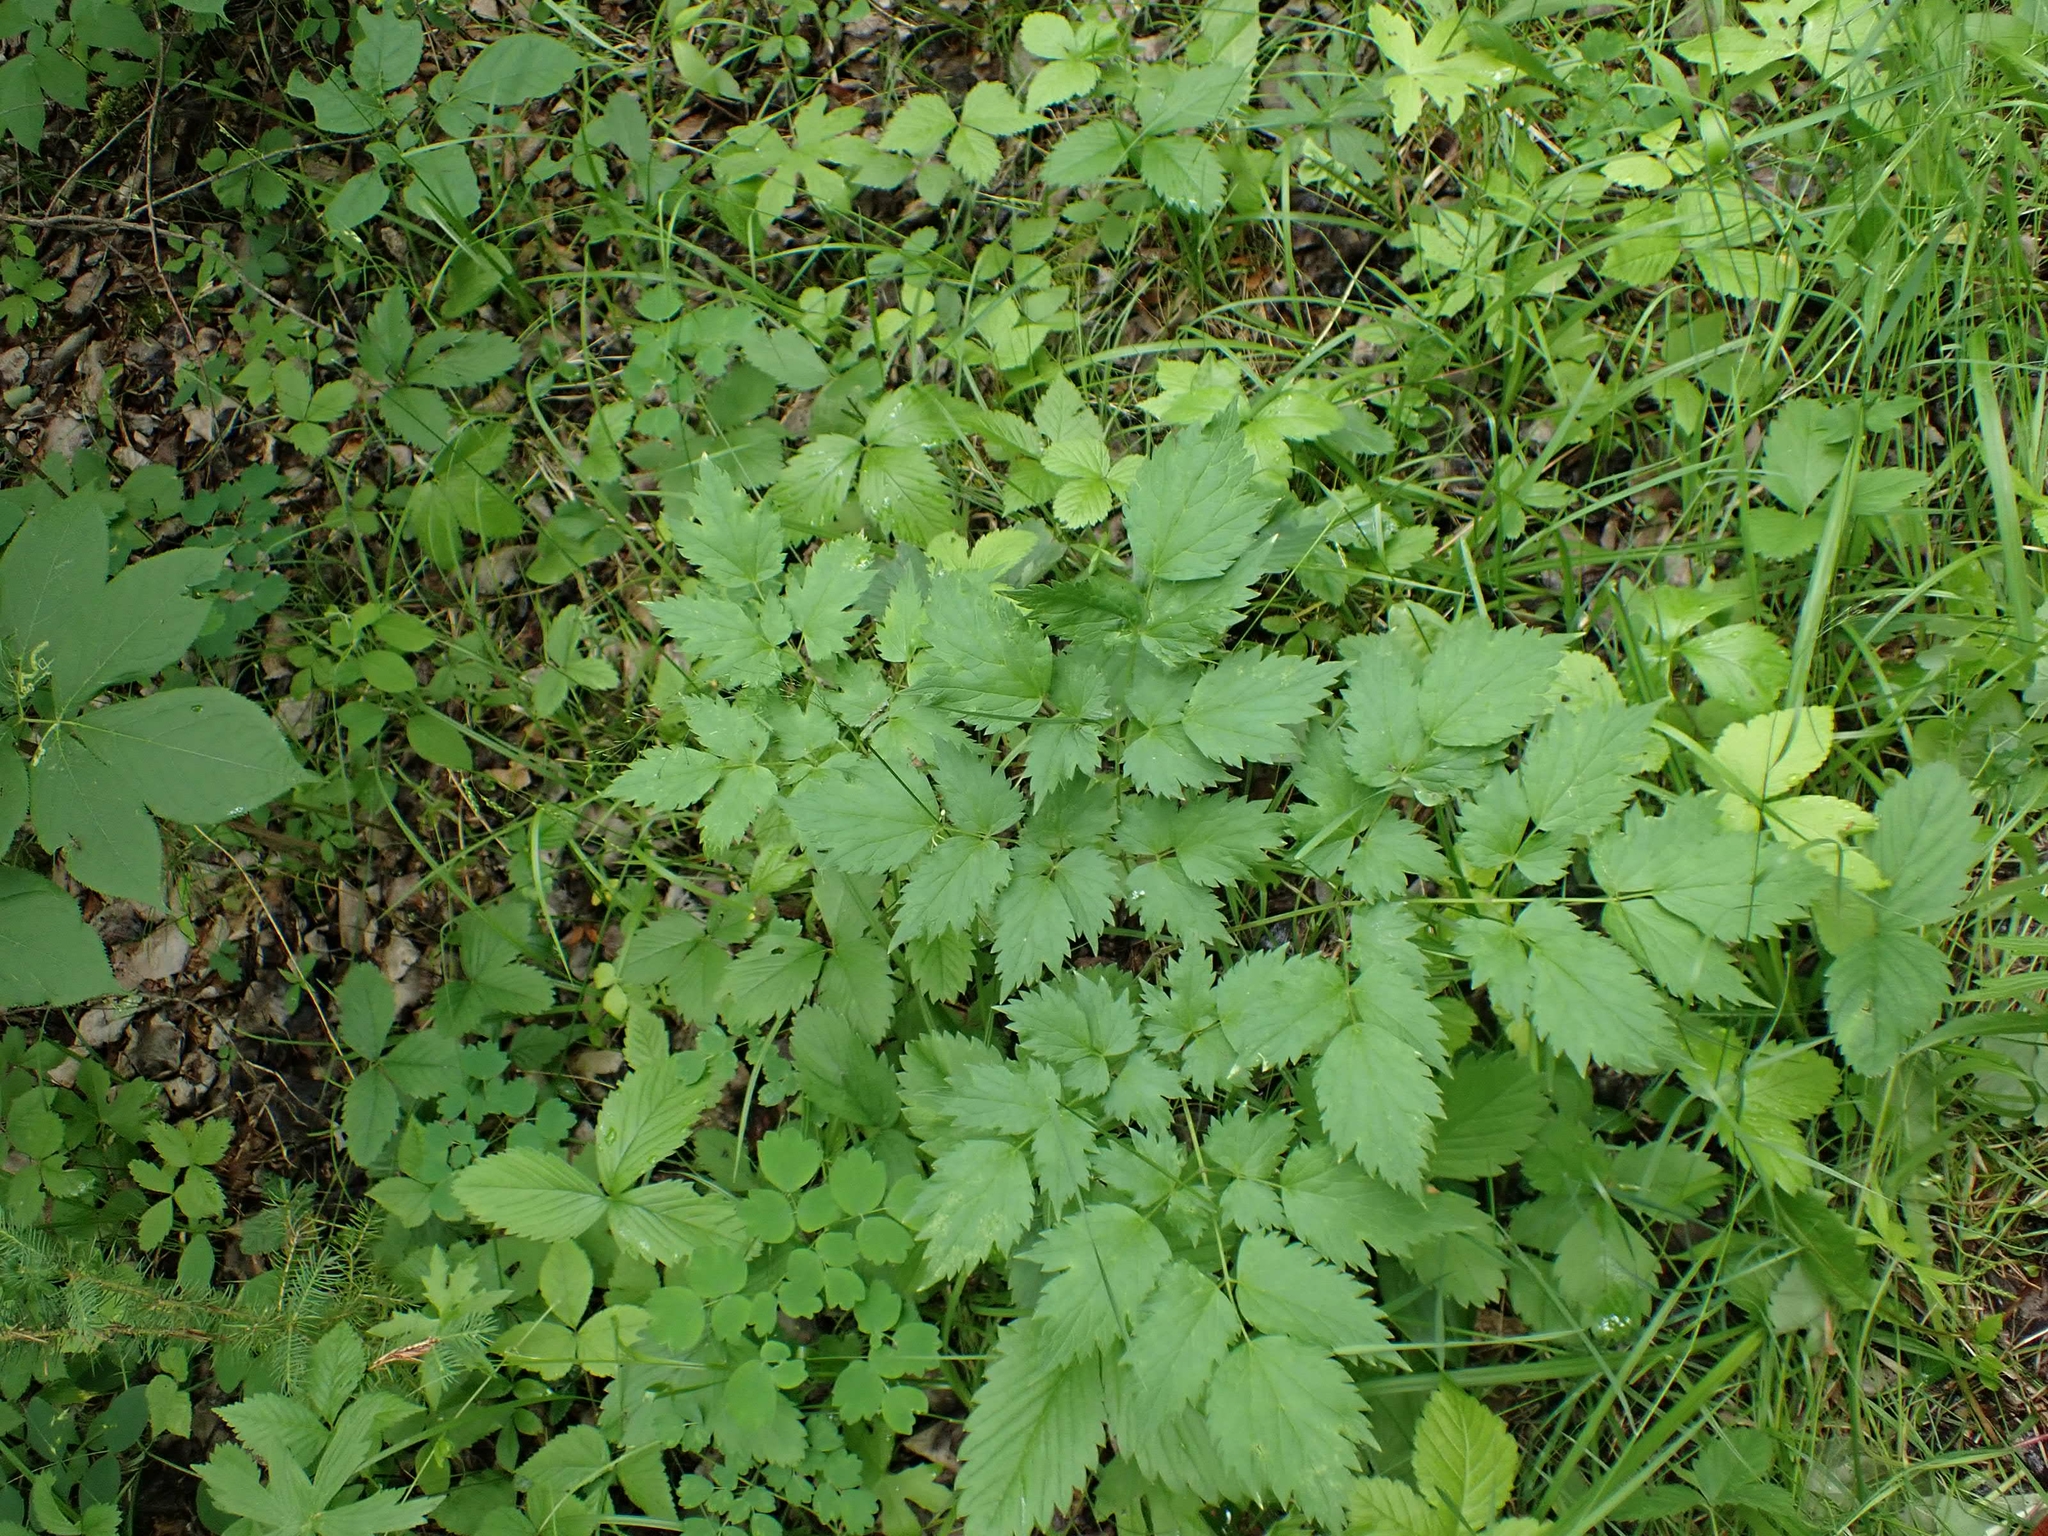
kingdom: Plantae
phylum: Tracheophyta
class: Magnoliopsida
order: Ranunculales
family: Ranunculaceae
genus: Actaea
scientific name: Actaea rubra
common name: Red baneberry
